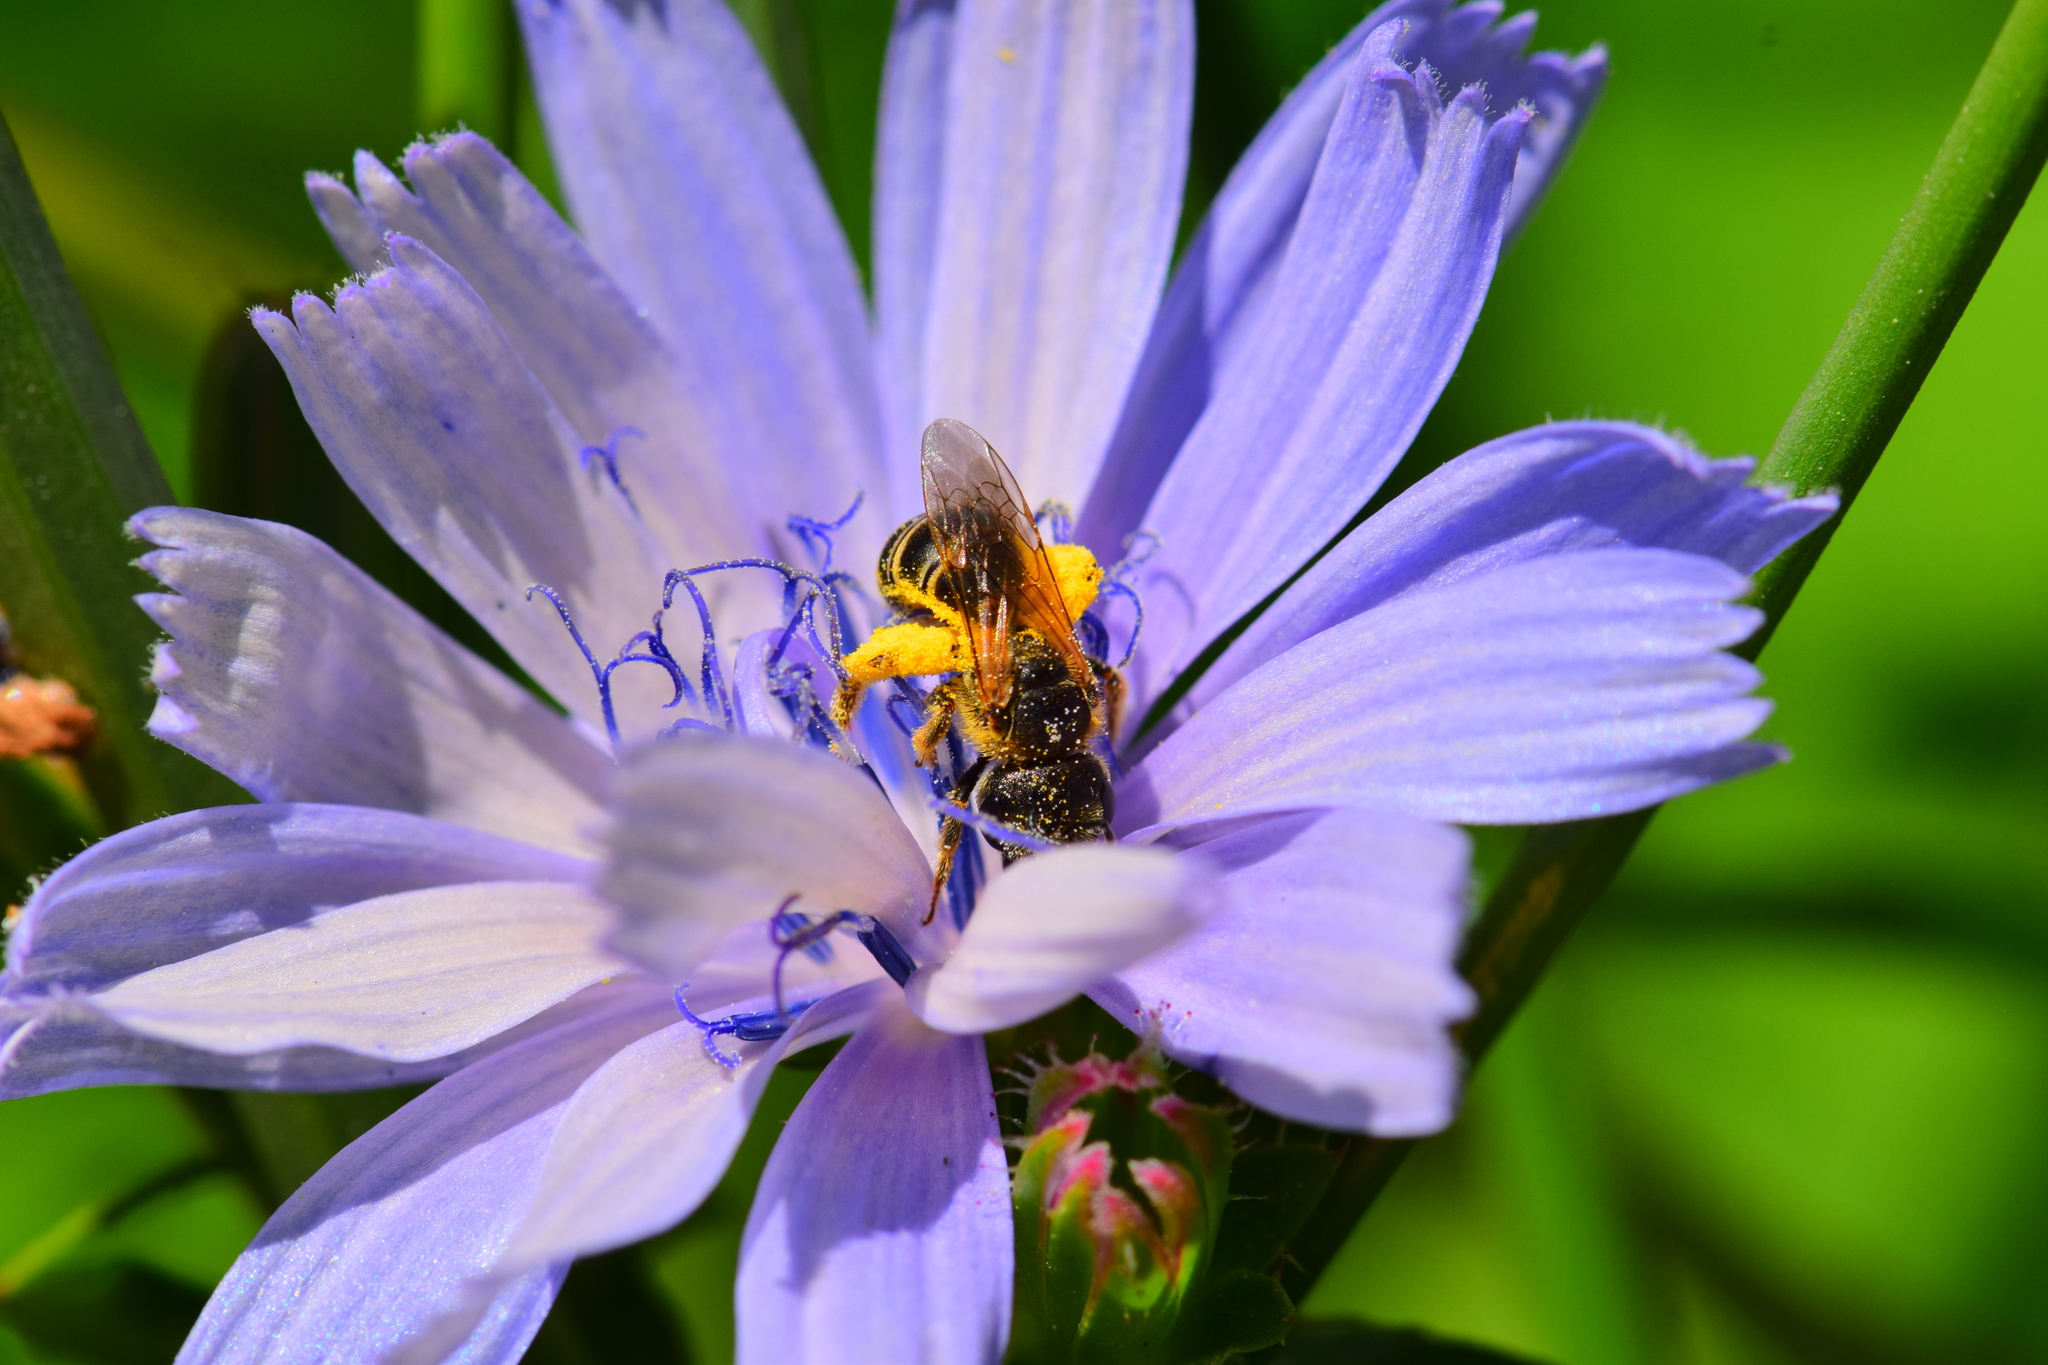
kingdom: Animalia
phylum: Arthropoda
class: Insecta
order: Hymenoptera
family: Halictidae
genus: Halictus
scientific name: Halictus ligatus
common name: Ligated furrow bee
